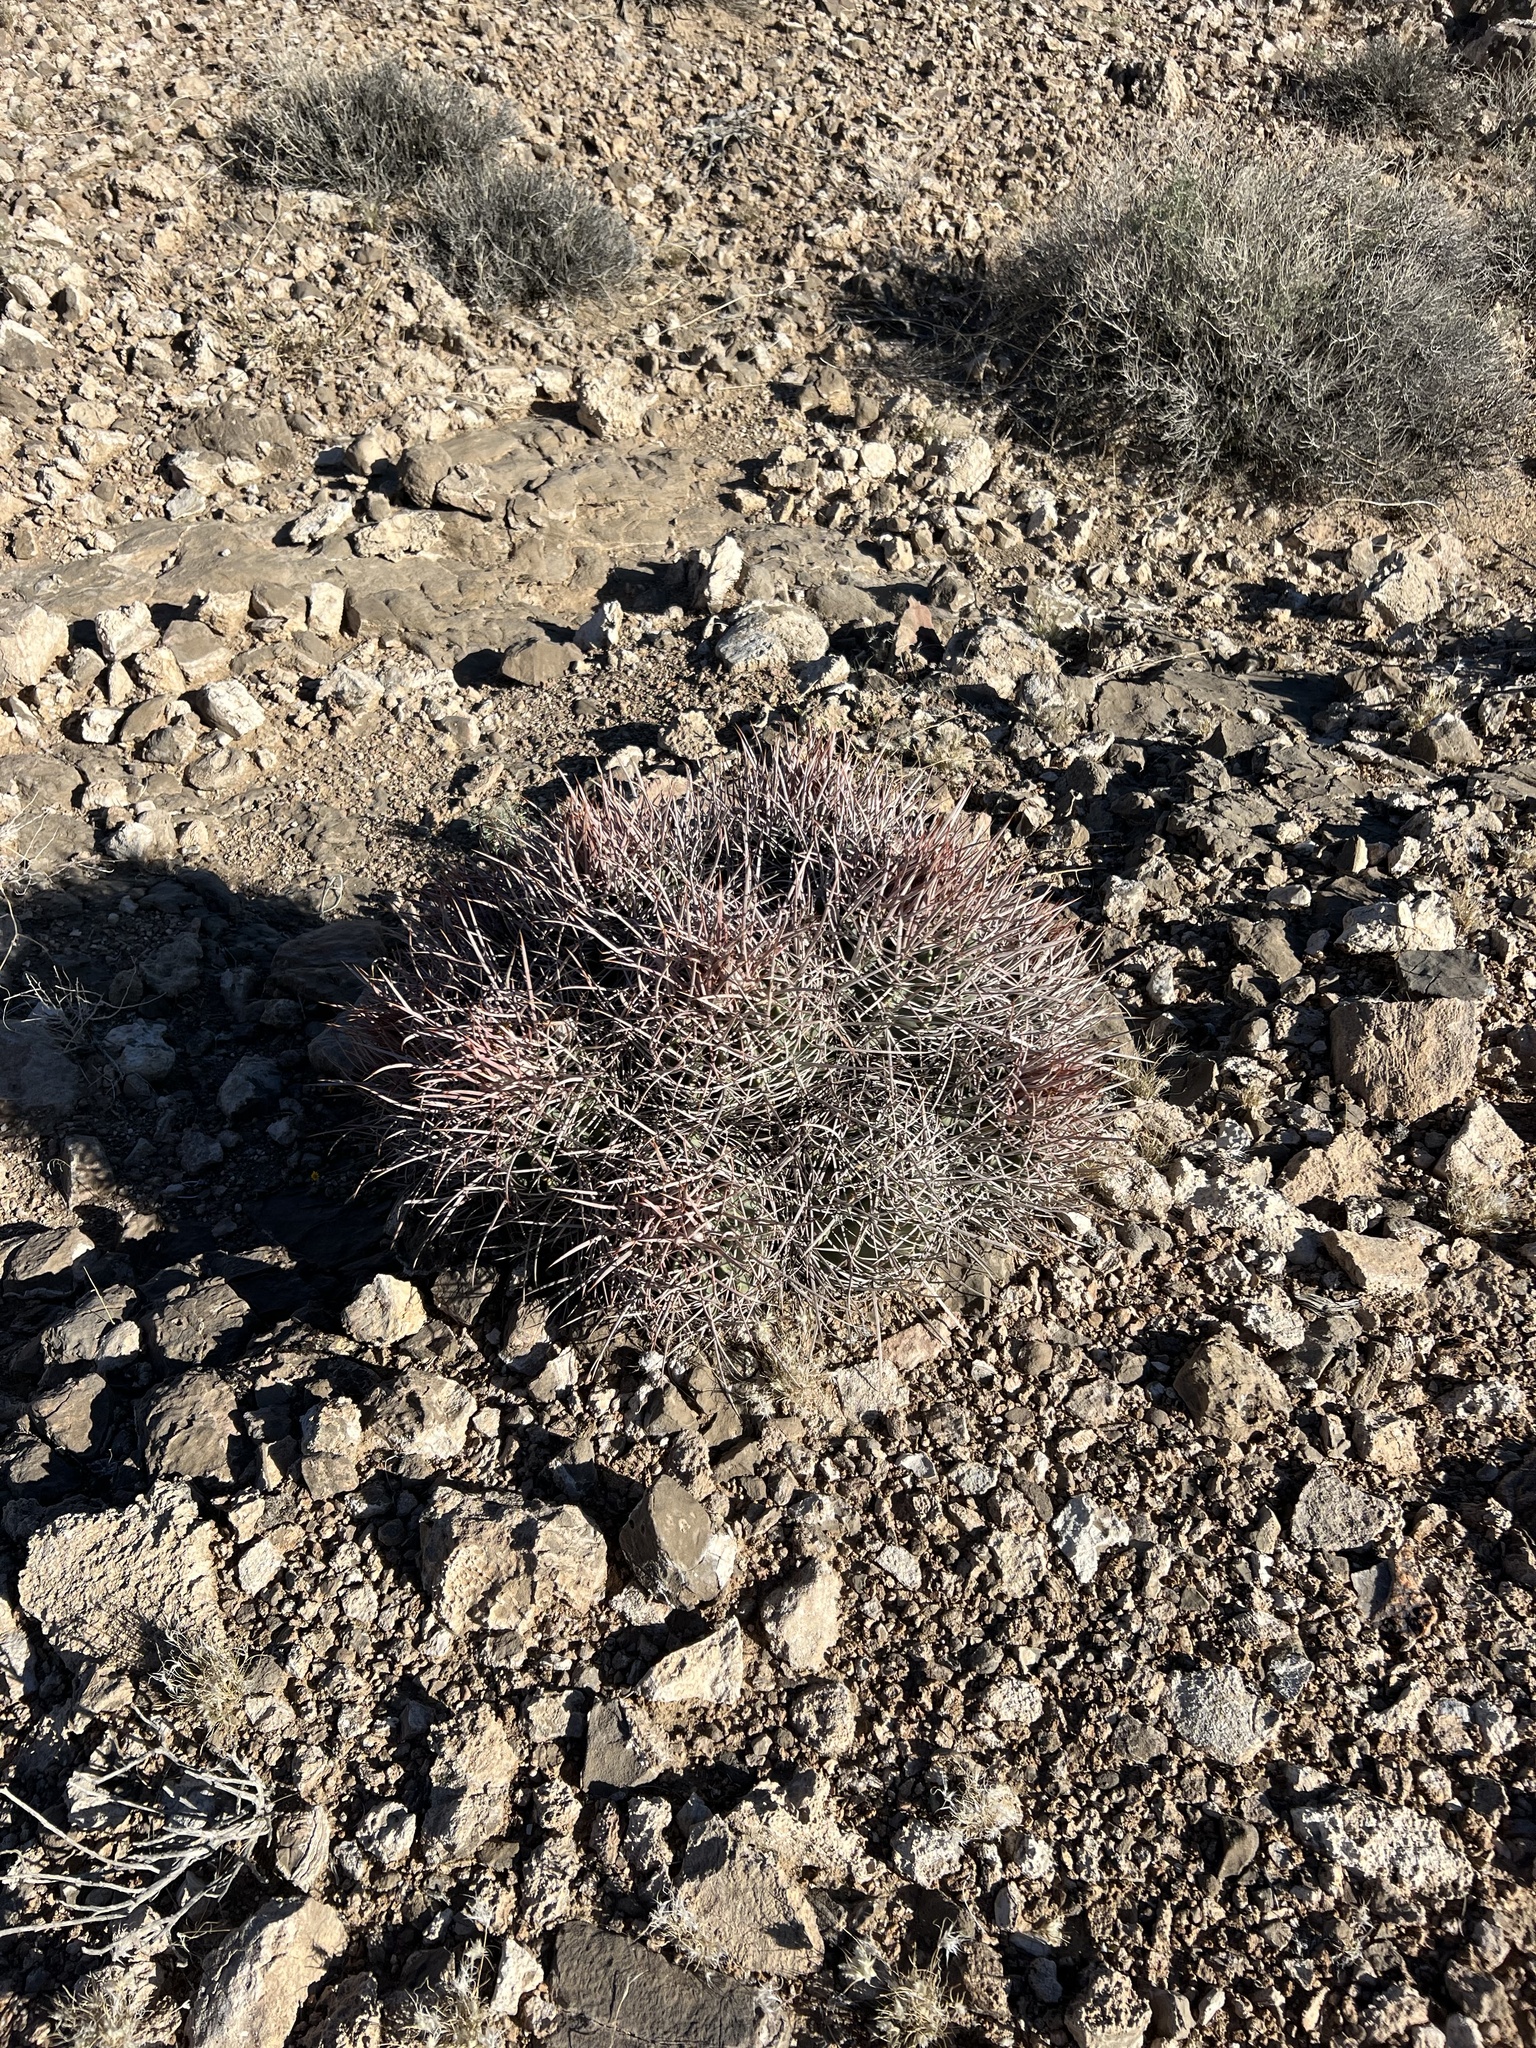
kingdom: Plantae
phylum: Tracheophyta
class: Magnoliopsida
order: Caryophyllales
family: Cactaceae
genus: Echinocactus
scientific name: Echinocactus polycephalus
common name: Cottontop cactus
